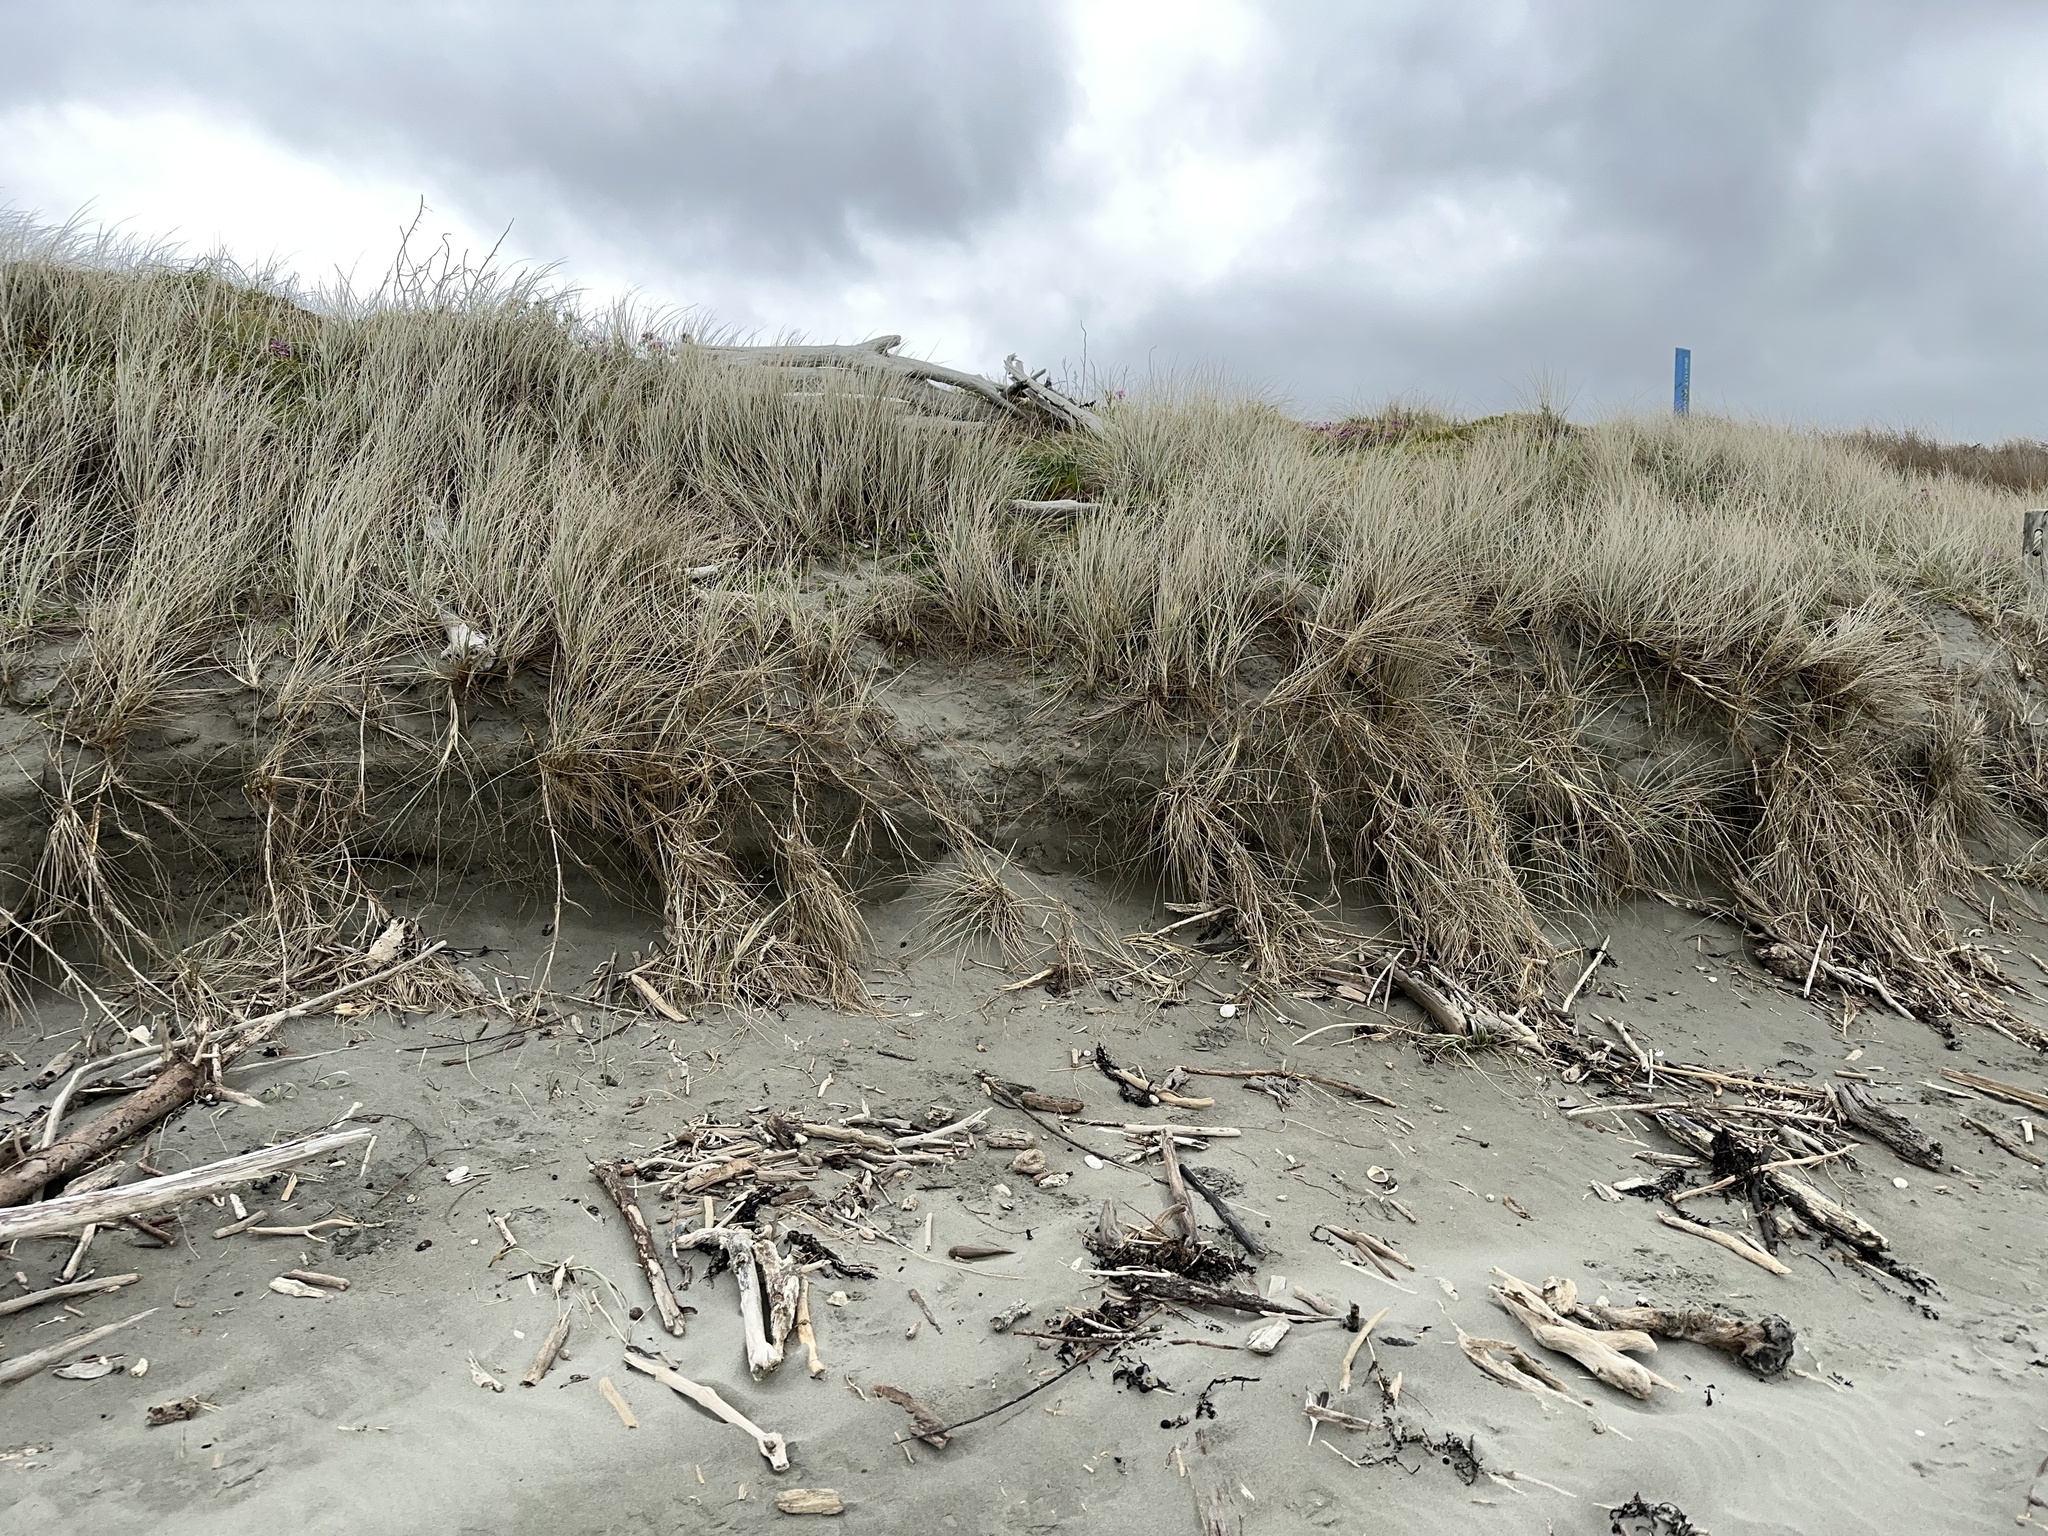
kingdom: Plantae
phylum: Tracheophyta
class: Liliopsida
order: Poales
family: Poaceae
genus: Spinifex
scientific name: Spinifex sericeus
